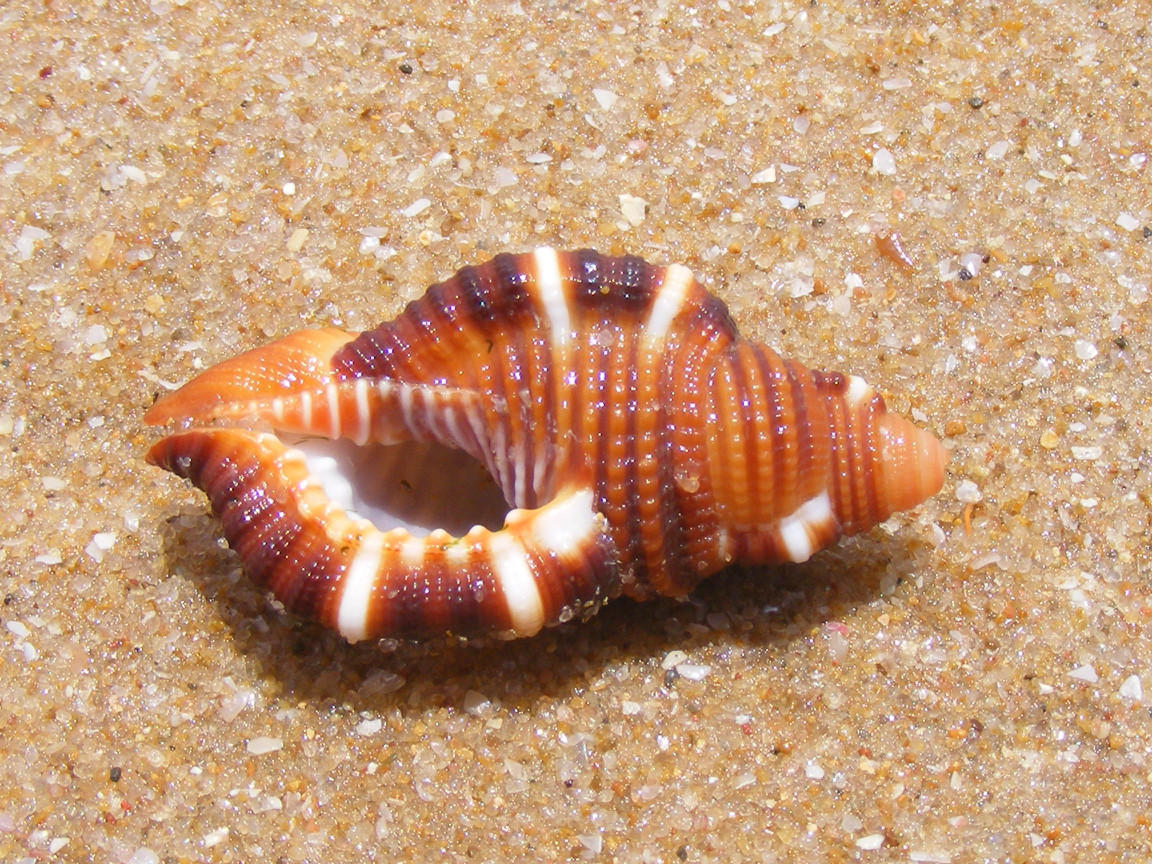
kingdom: Animalia
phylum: Mollusca
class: Gastropoda
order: Littorinimorpha
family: Cymatiidae
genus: Septa
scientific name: Septa closeli
